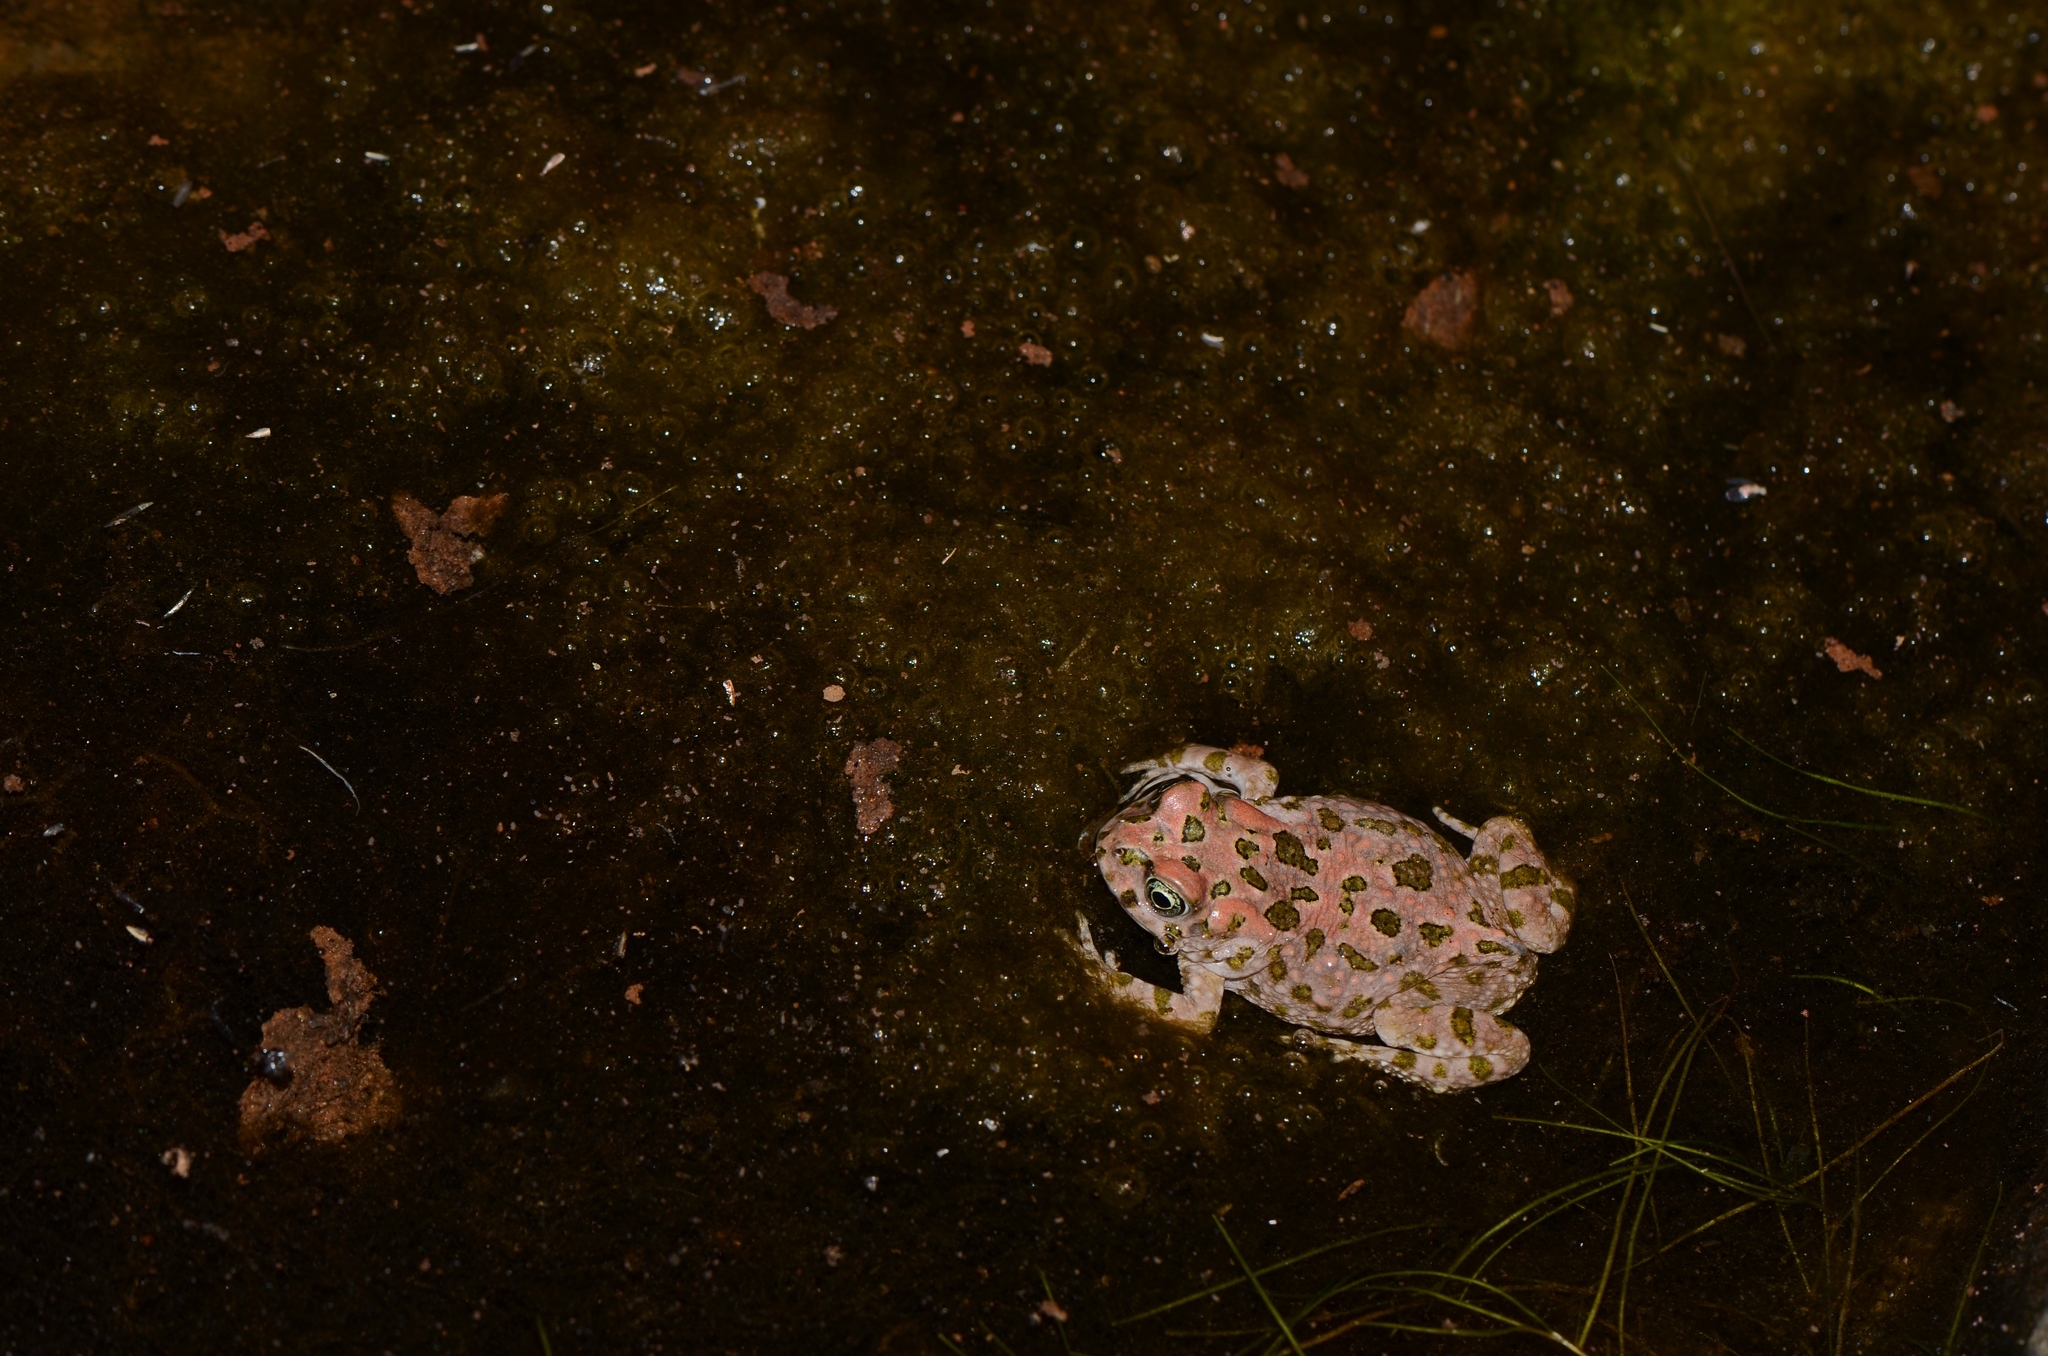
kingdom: Animalia
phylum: Chordata
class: Amphibia
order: Anura
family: Bufonidae
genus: Vandijkophrynus
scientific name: Vandijkophrynus robinsoni
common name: Paradise toad
